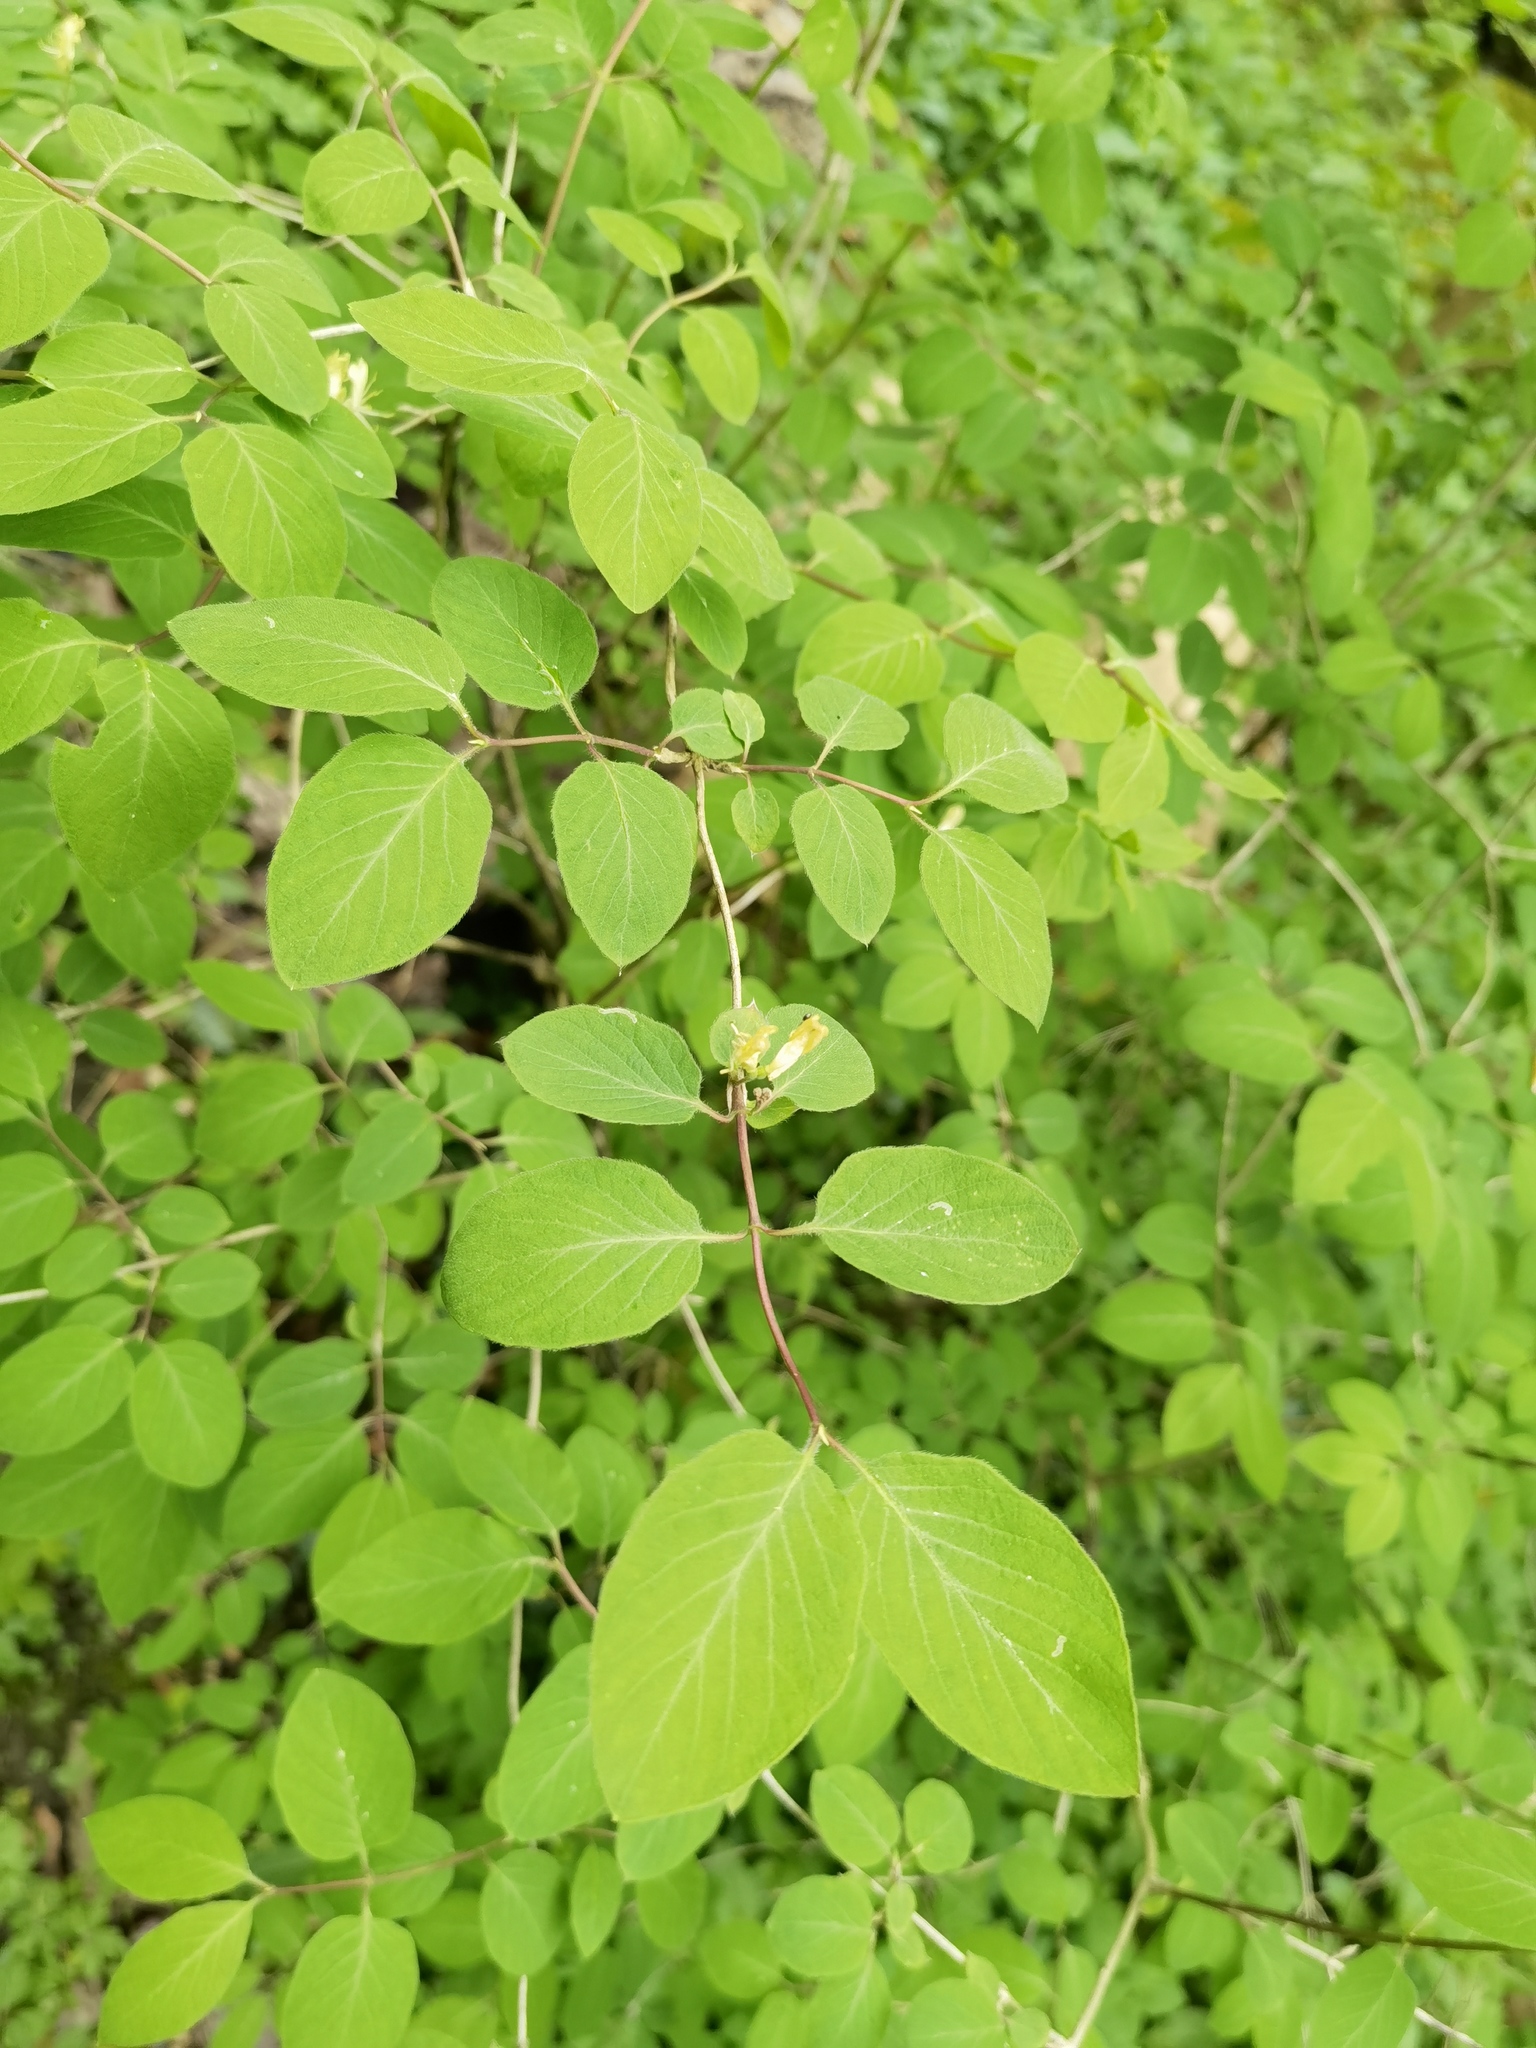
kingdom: Plantae
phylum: Tracheophyta
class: Magnoliopsida
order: Dipsacales
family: Caprifoliaceae
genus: Lonicera
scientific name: Lonicera xylosteum
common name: Fly honeysuckle
